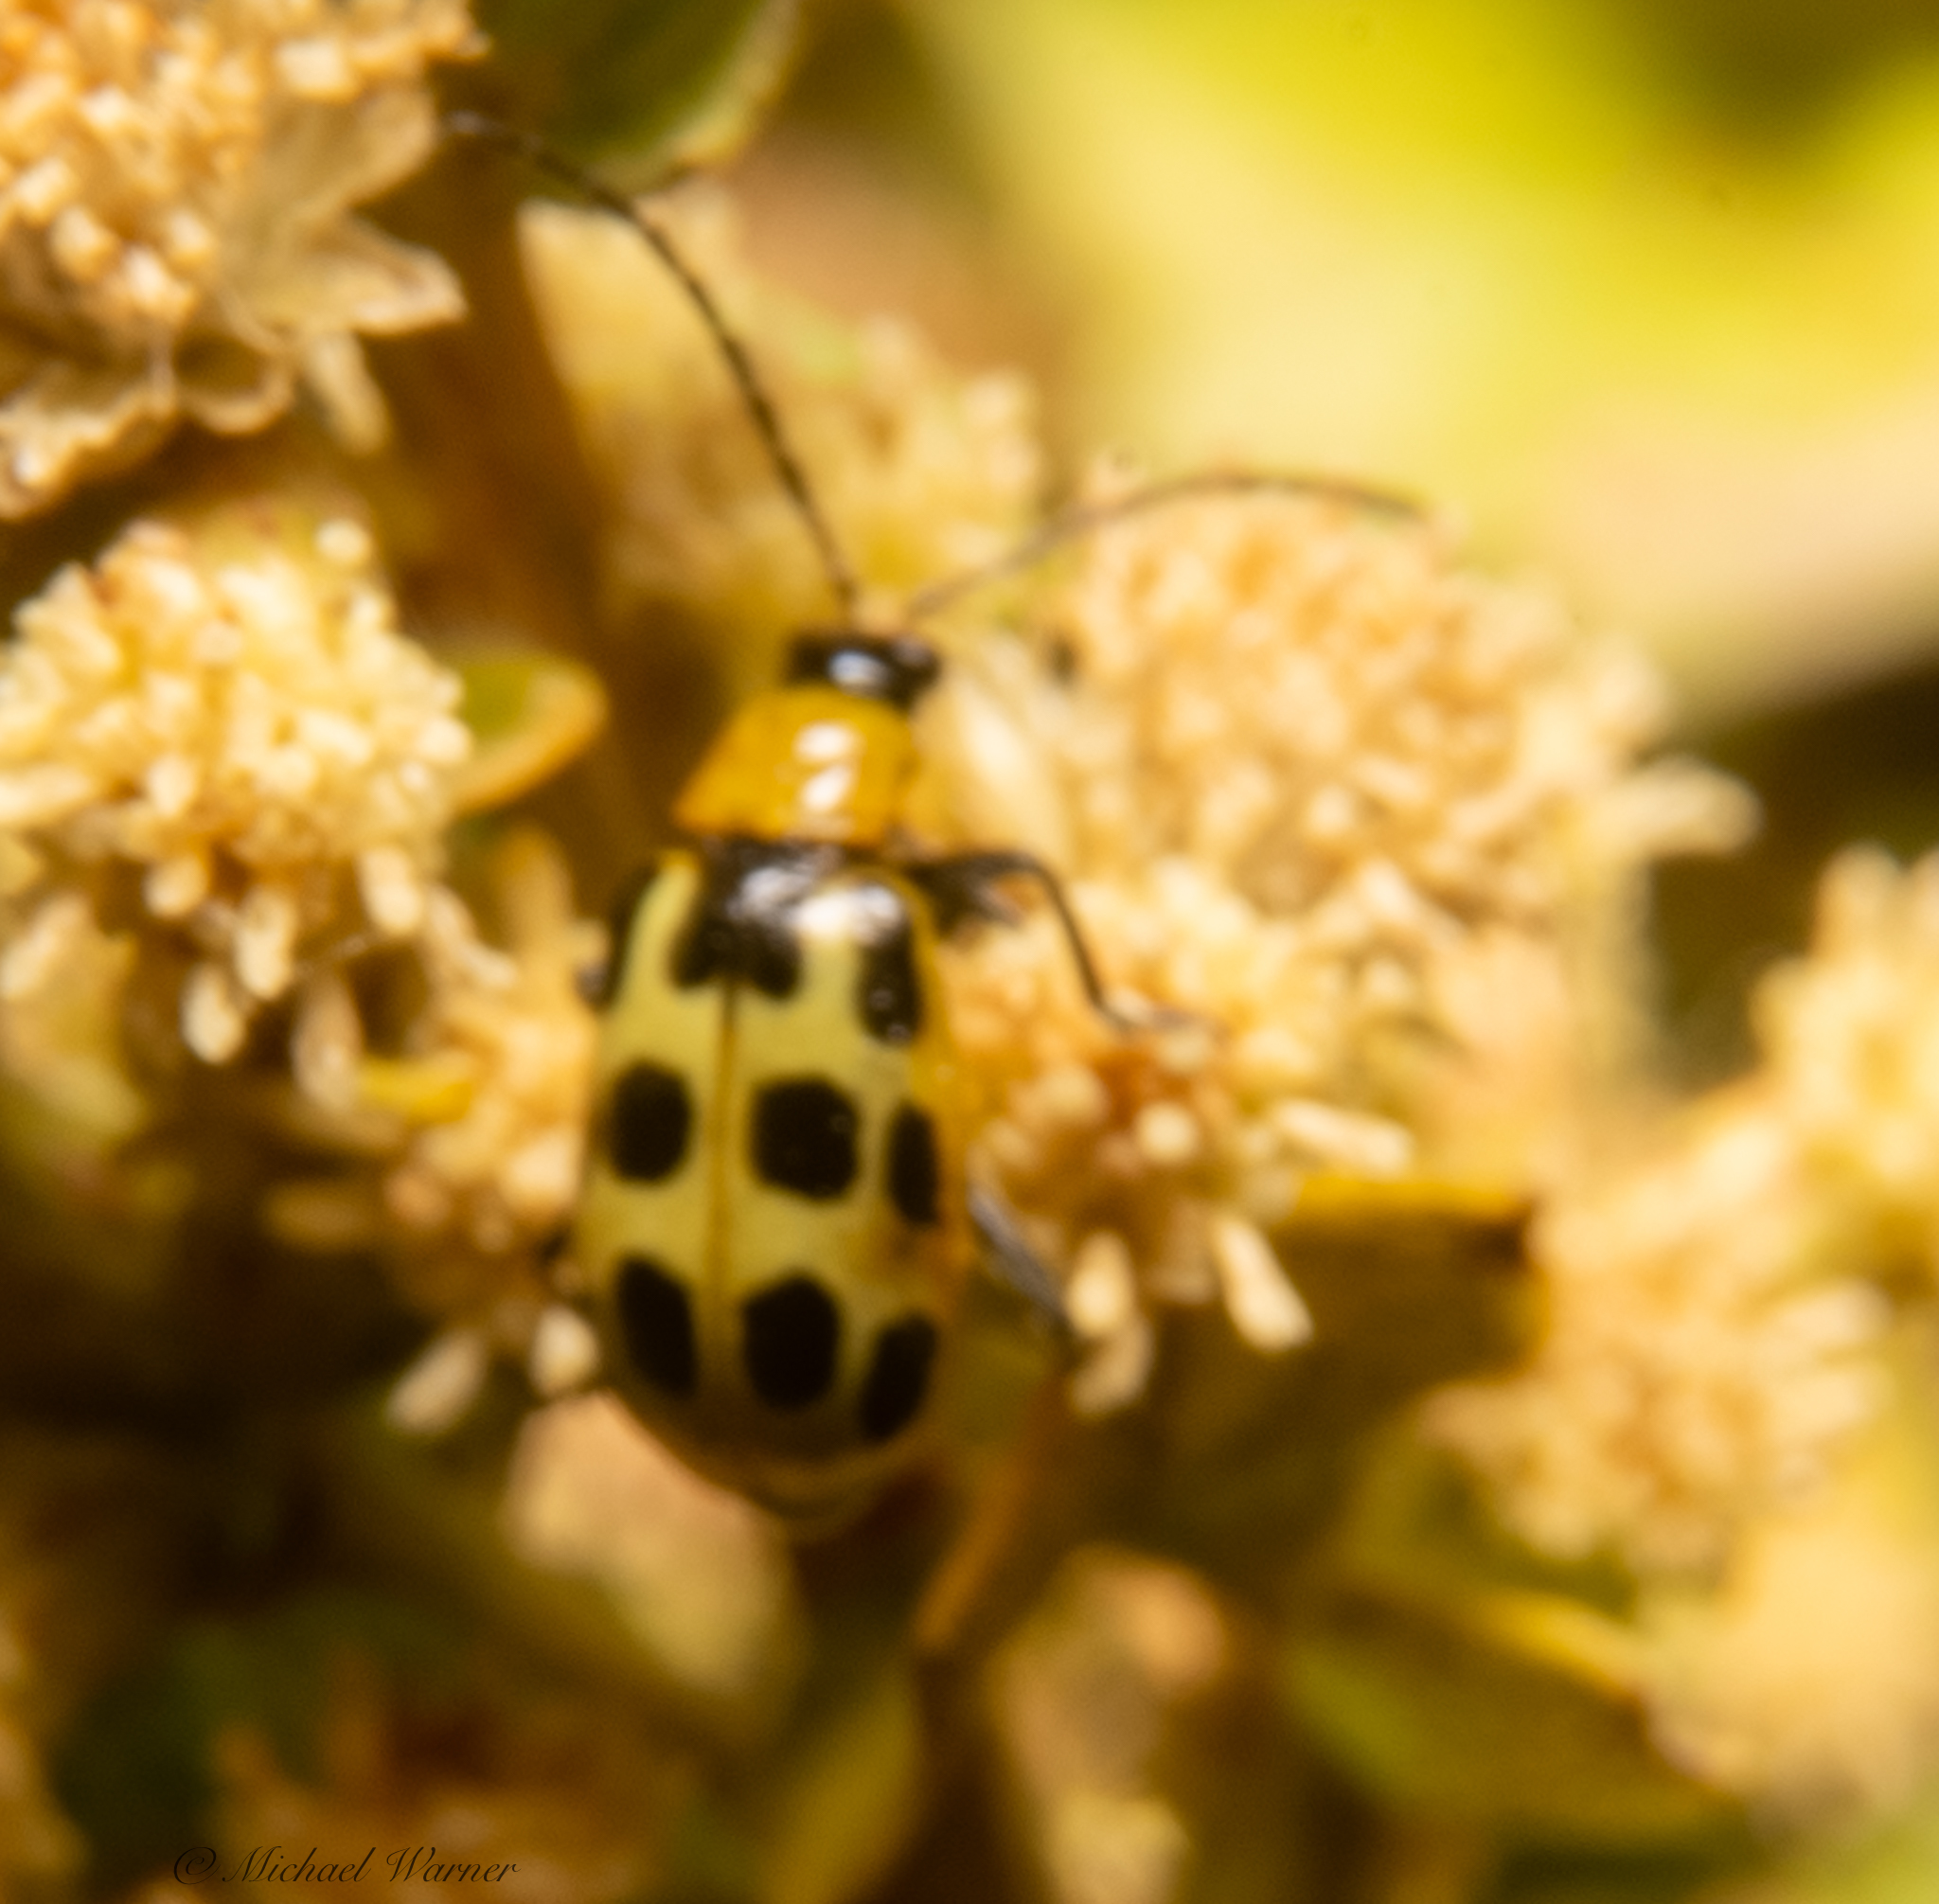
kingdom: Animalia
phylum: Arthropoda
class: Insecta
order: Coleoptera
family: Chrysomelidae
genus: Diabrotica
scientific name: Diabrotica undecimpunctata
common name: Spotted cucumber beetle
